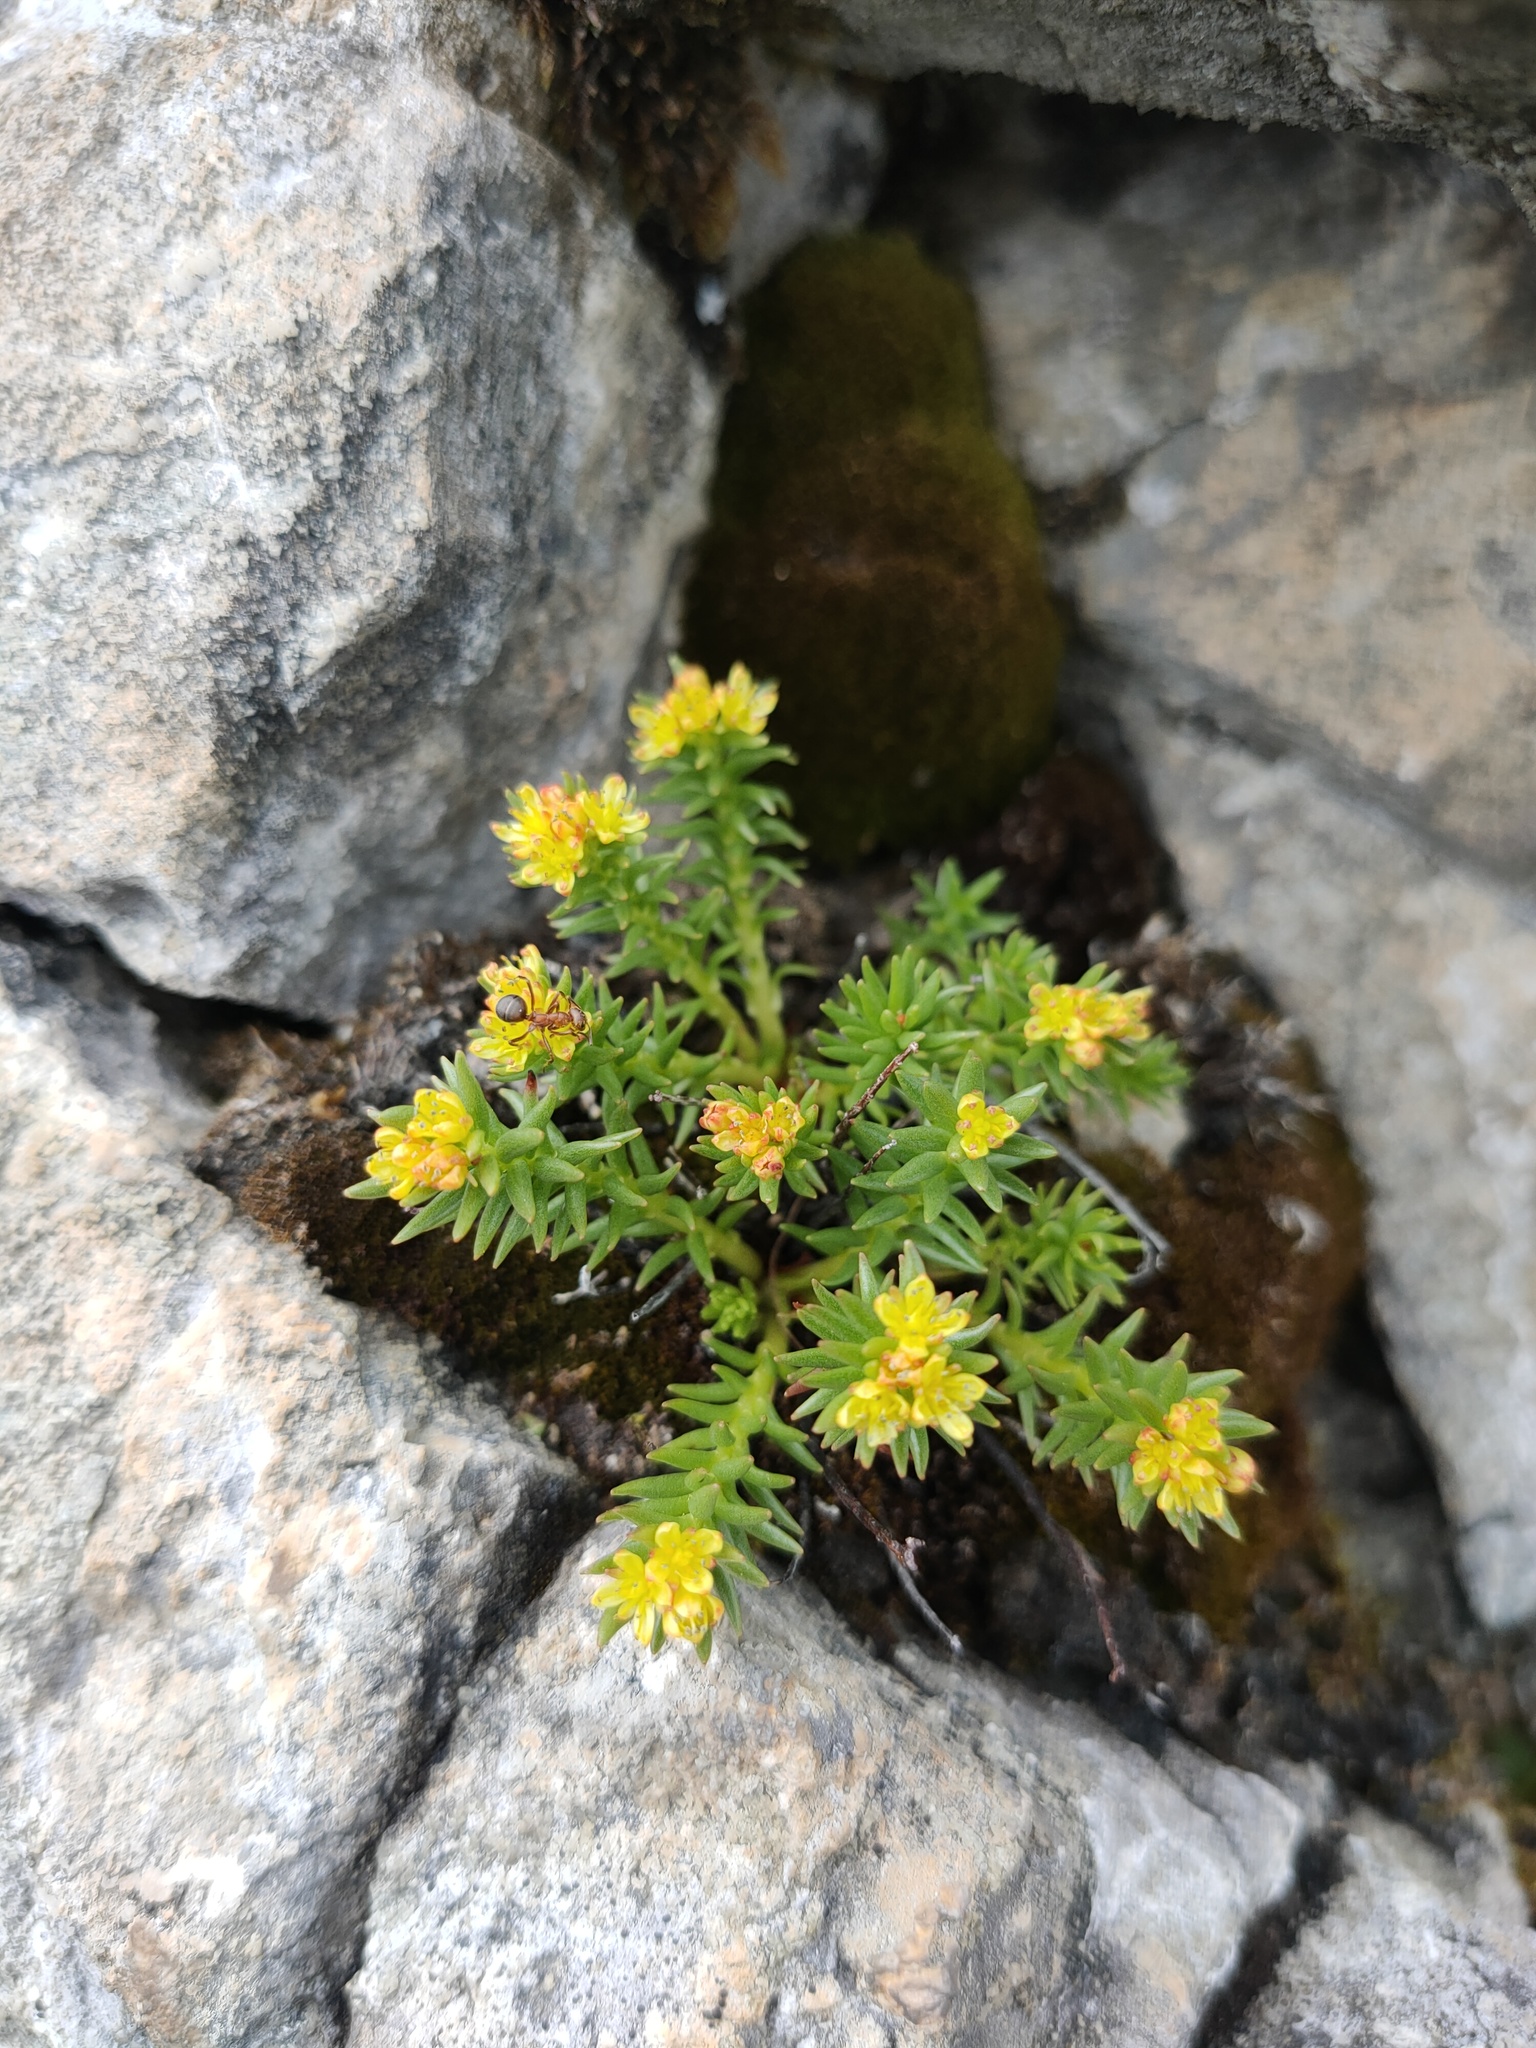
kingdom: Plantae
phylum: Tracheophyta
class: Magnoliopsida
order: Saxifragales
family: Crassulaceae
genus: Rhodiola
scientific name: Rhodiola quadrifida
